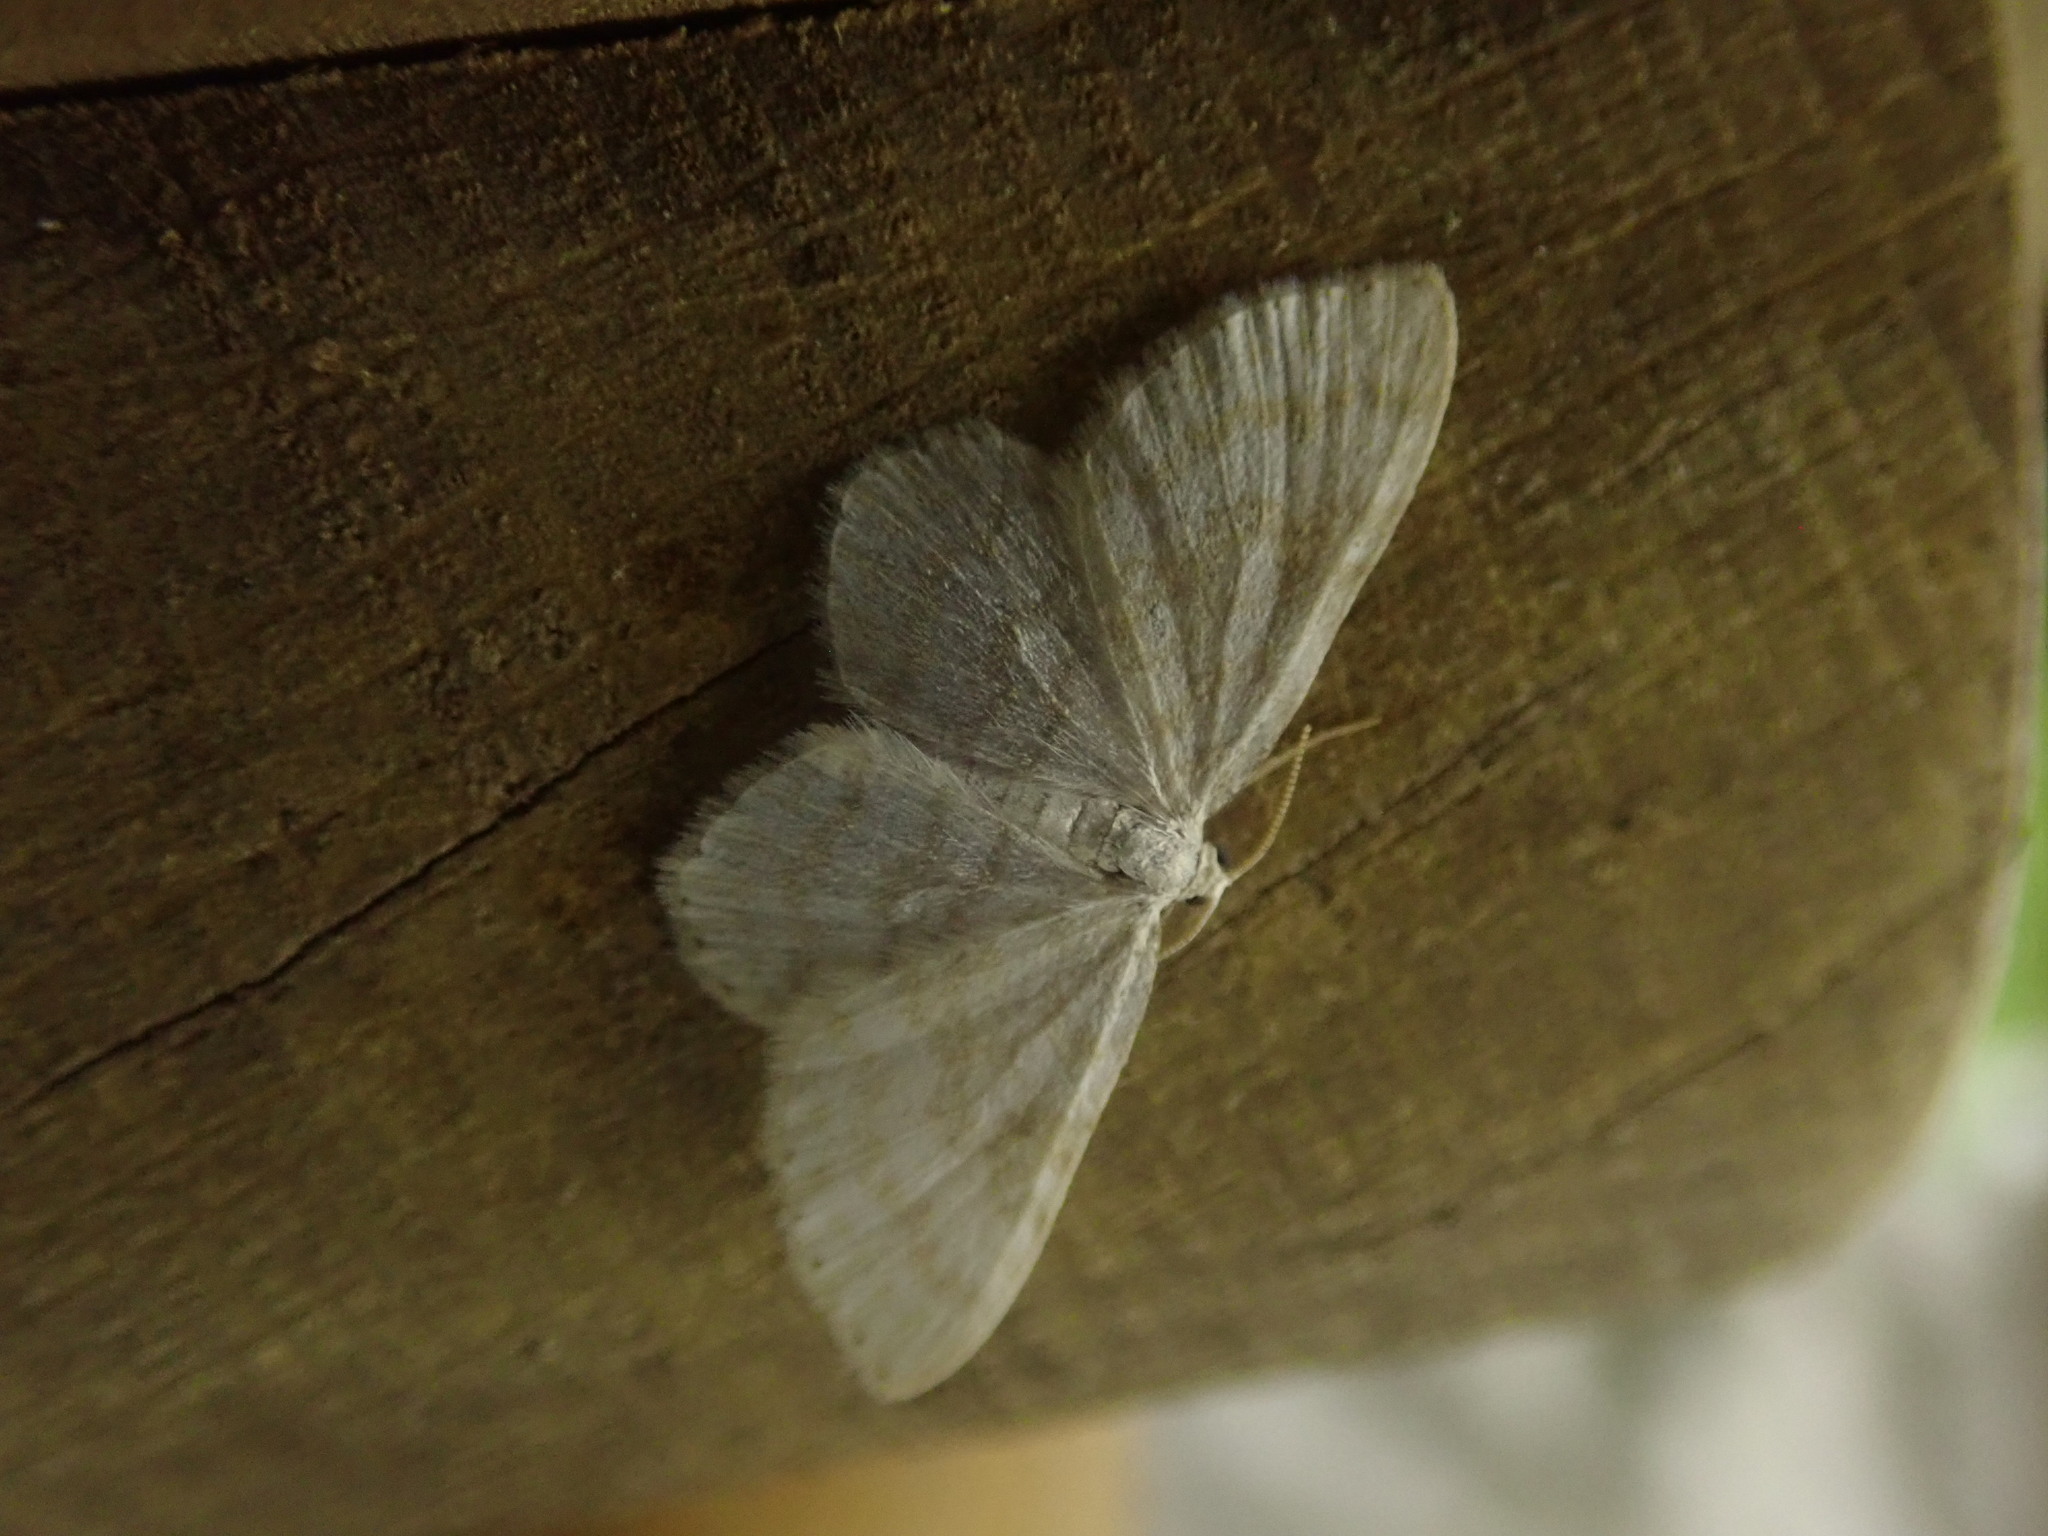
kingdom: Animalia
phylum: Arthropoda
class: Insecta
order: Lepidoptera
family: Geometridae
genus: Asthena
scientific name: Asthena albulata
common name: Small white wave
